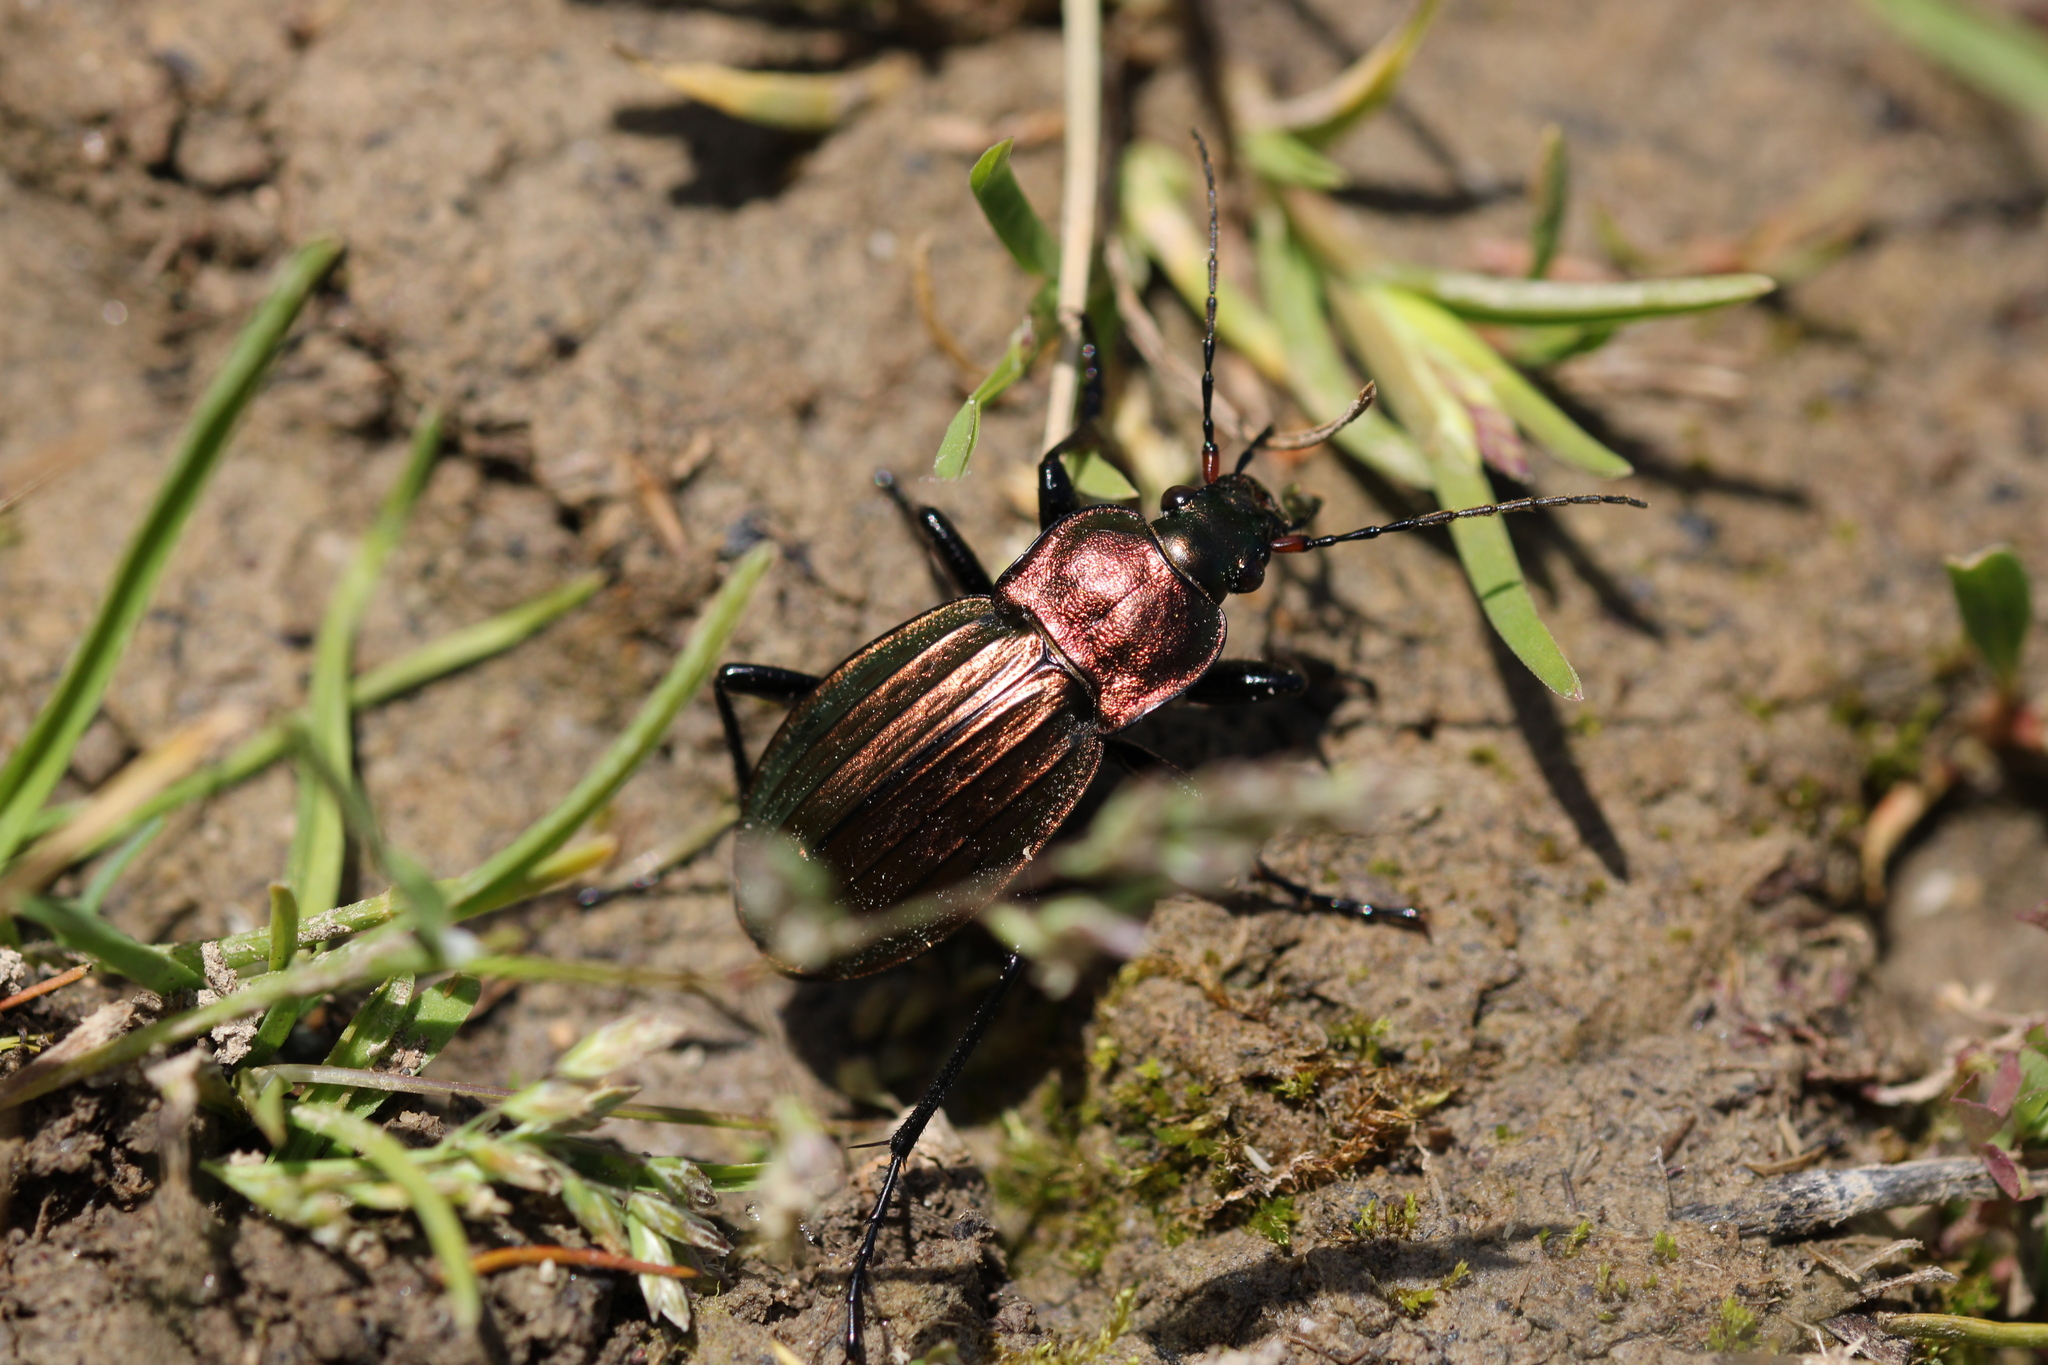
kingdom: Animalia
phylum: Arthropoda
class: Insecta
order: Coleoptera
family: Carabidae
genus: Carabus
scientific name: Carabus cancellatus
